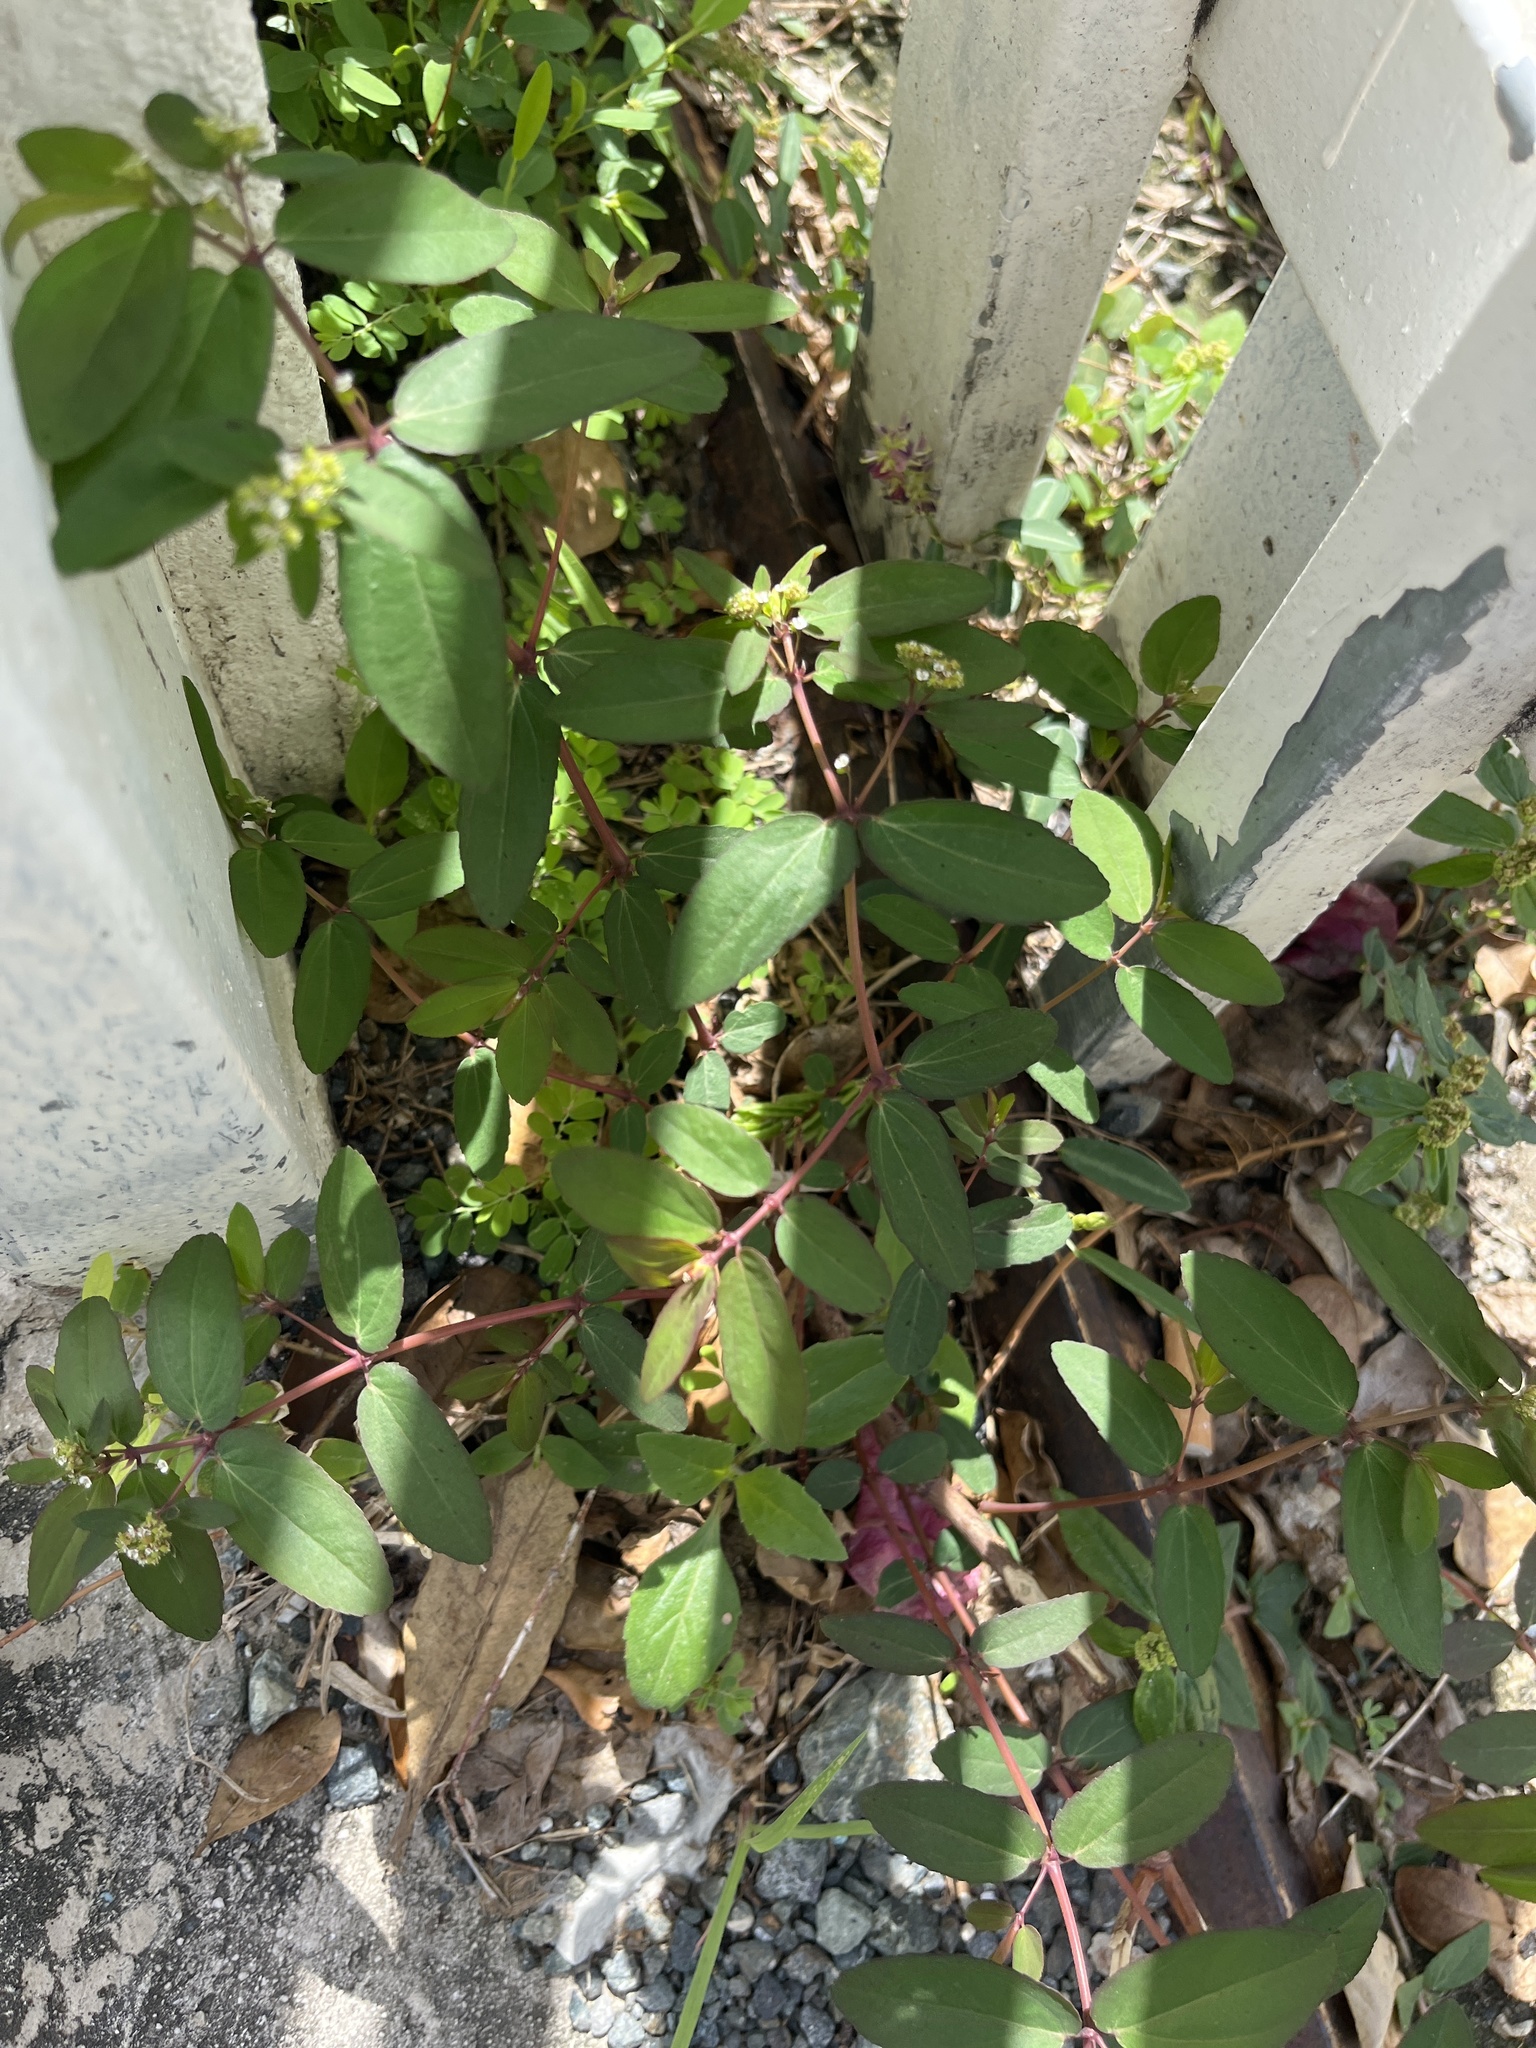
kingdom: Plantae
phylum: Tracheophyta
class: Magnoliopsida
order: Malpighiales
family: Euphorbiaceae
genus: Euphorbia
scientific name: Euphorbia hypericifolia
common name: Graceful sandmat
